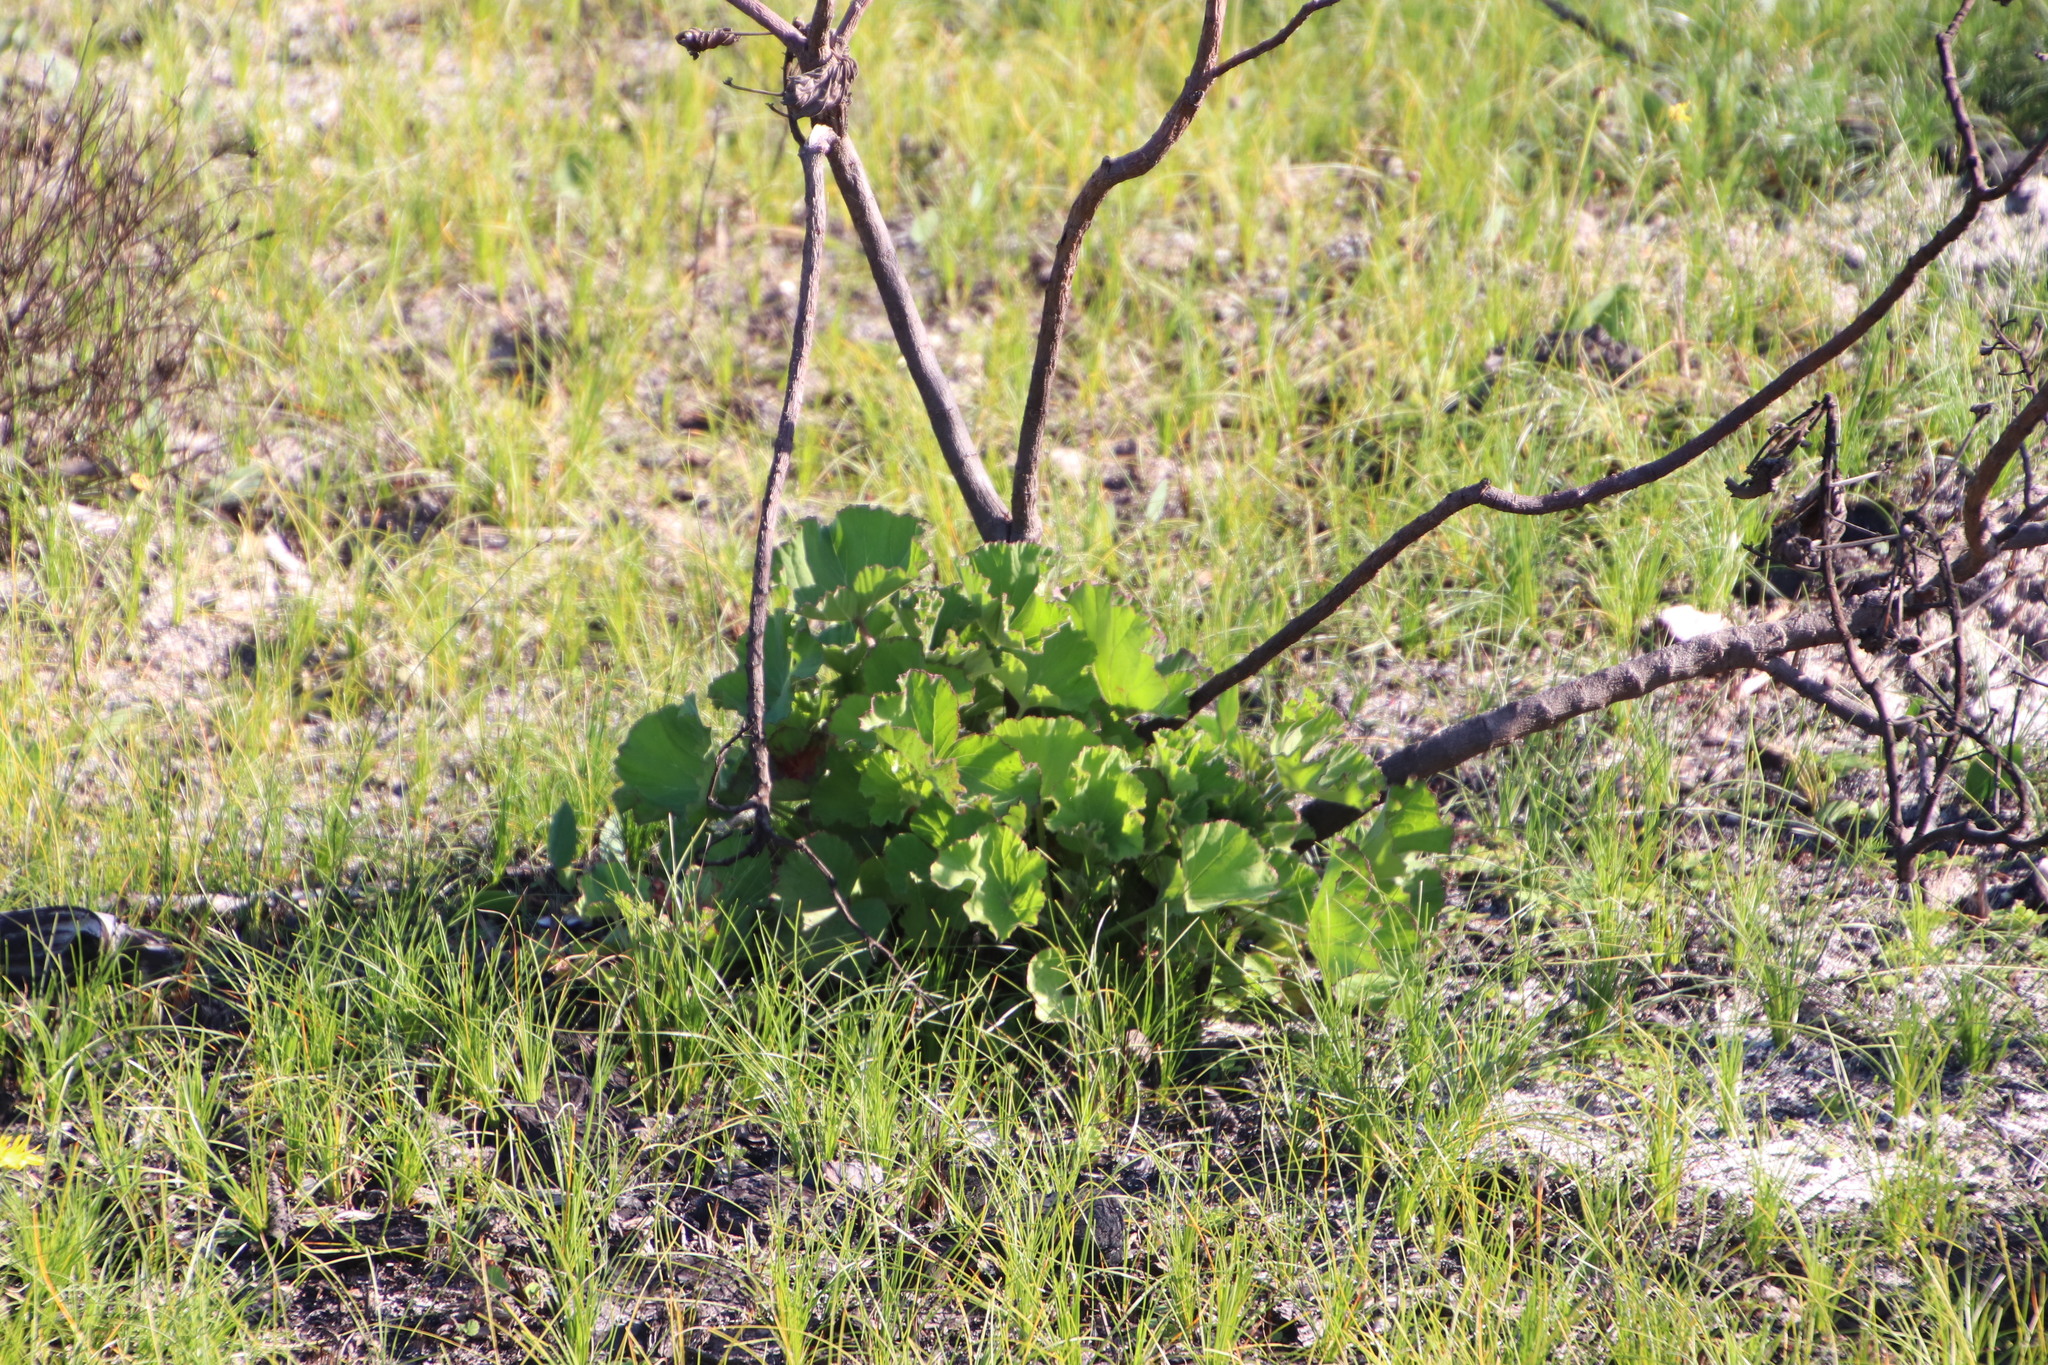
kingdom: Plantae
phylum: Tracheophyta
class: Magnoliopsida
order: Geraniales
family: Geraniaceae
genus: Pelargonium
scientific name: Pelargonium cucullatum
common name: Tree pelargonium
